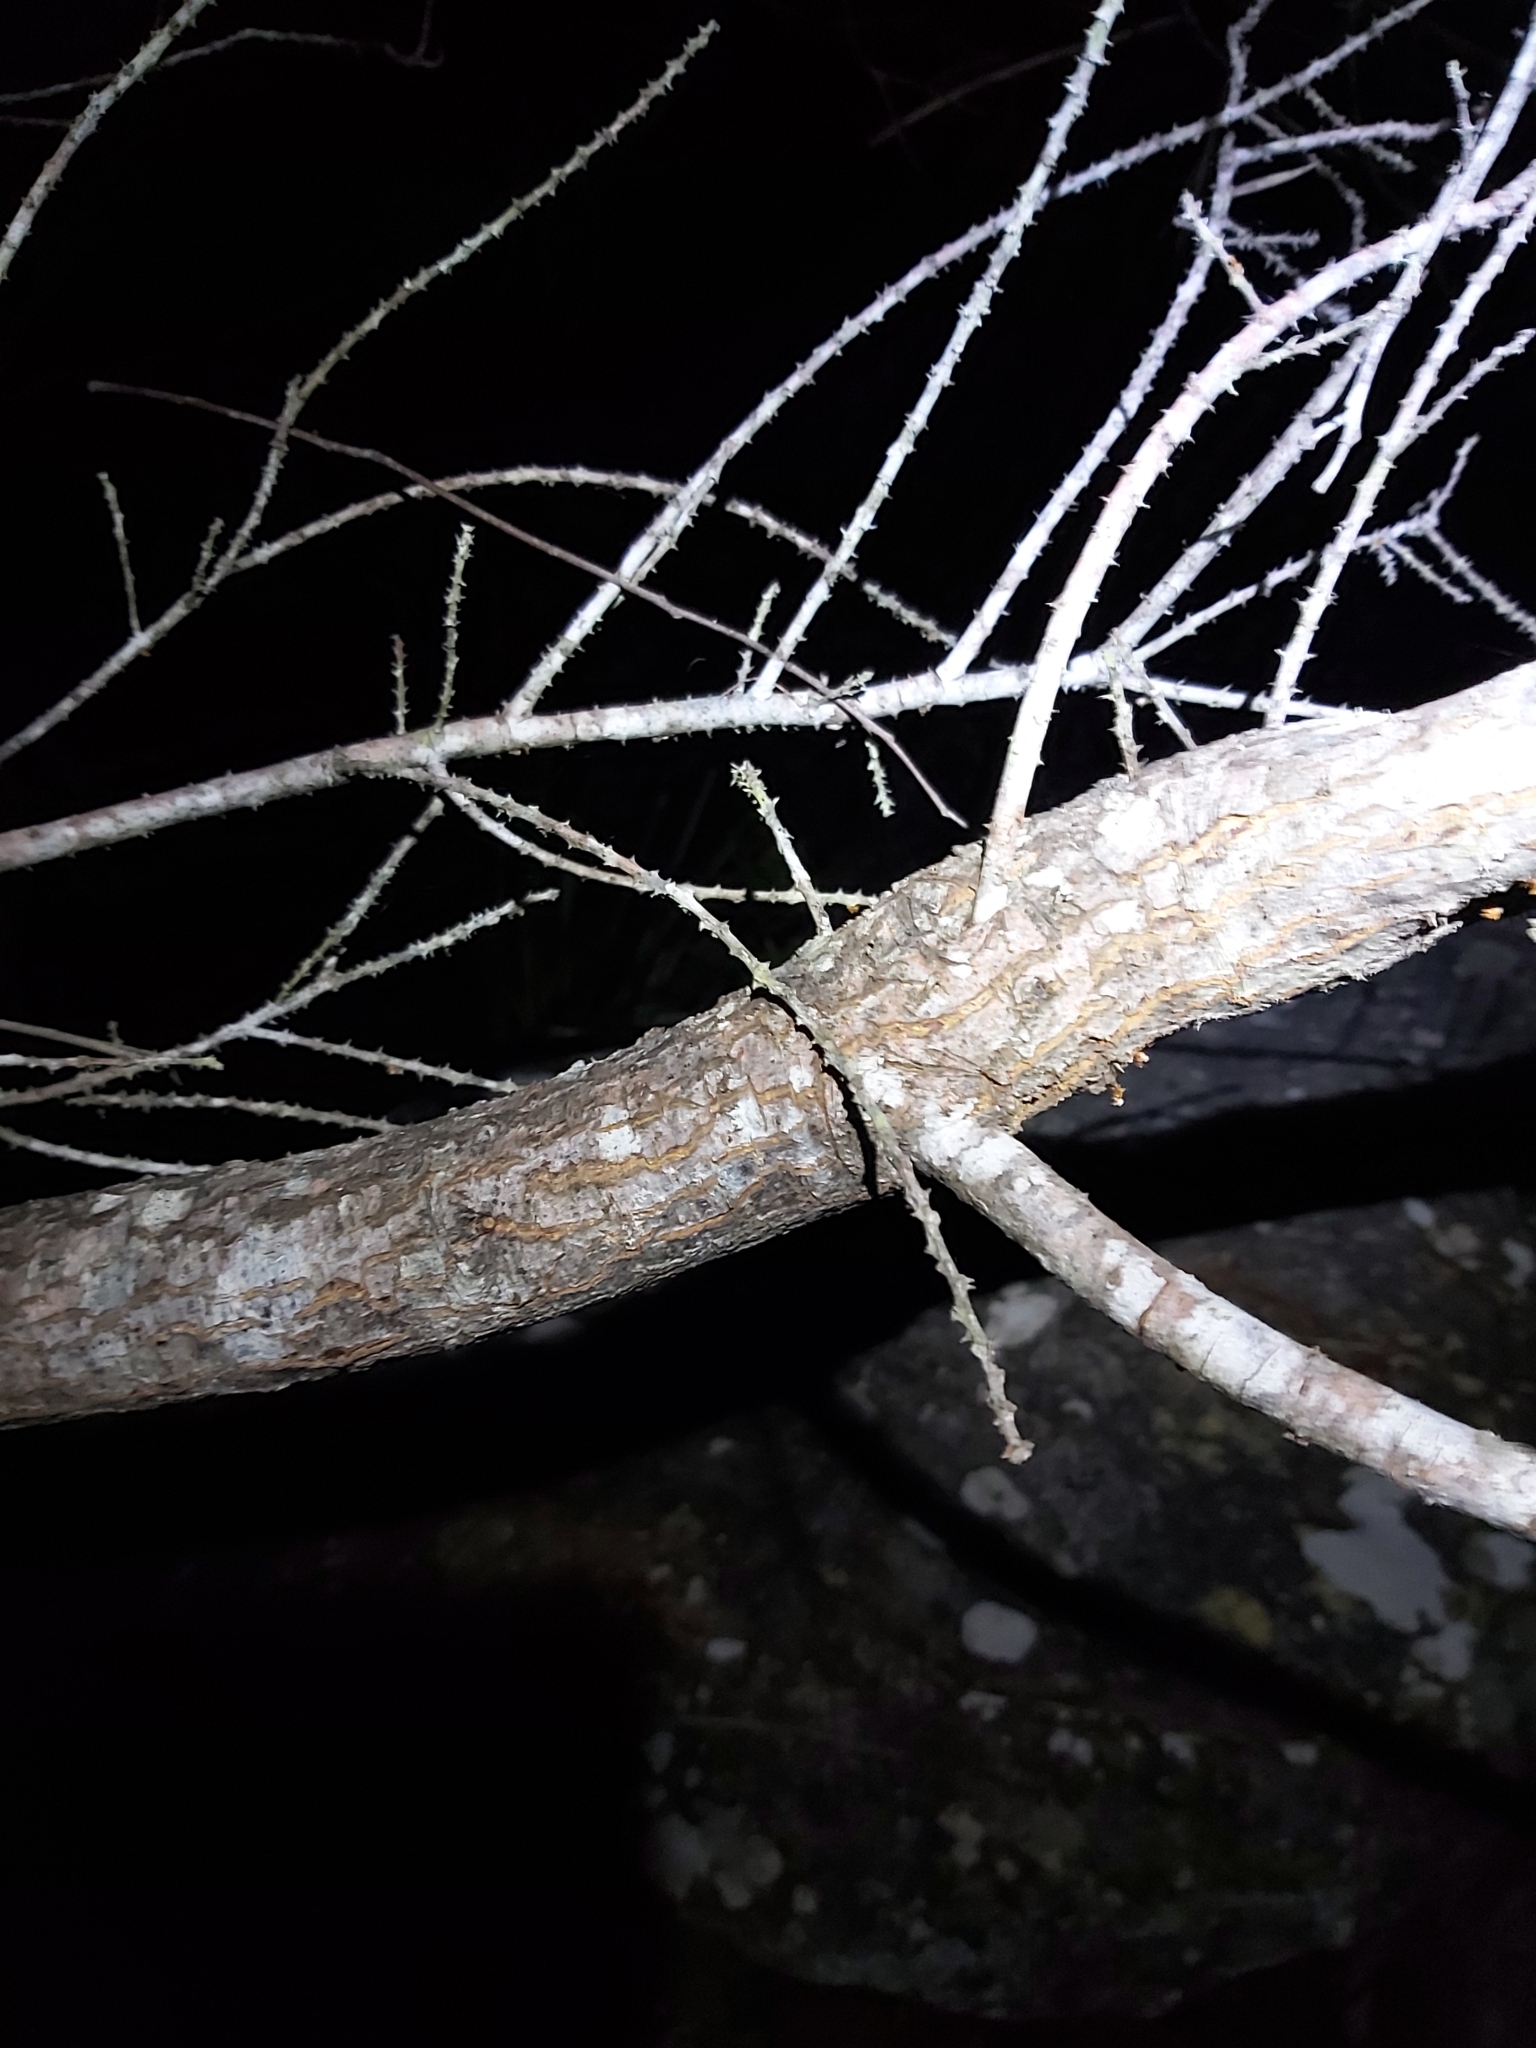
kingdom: Plantae
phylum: Tracheophyta
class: Magnoliopsida
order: Fabales
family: Fabaceae
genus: Acacia
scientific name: Acacia oxycedrus
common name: Spike wattle
